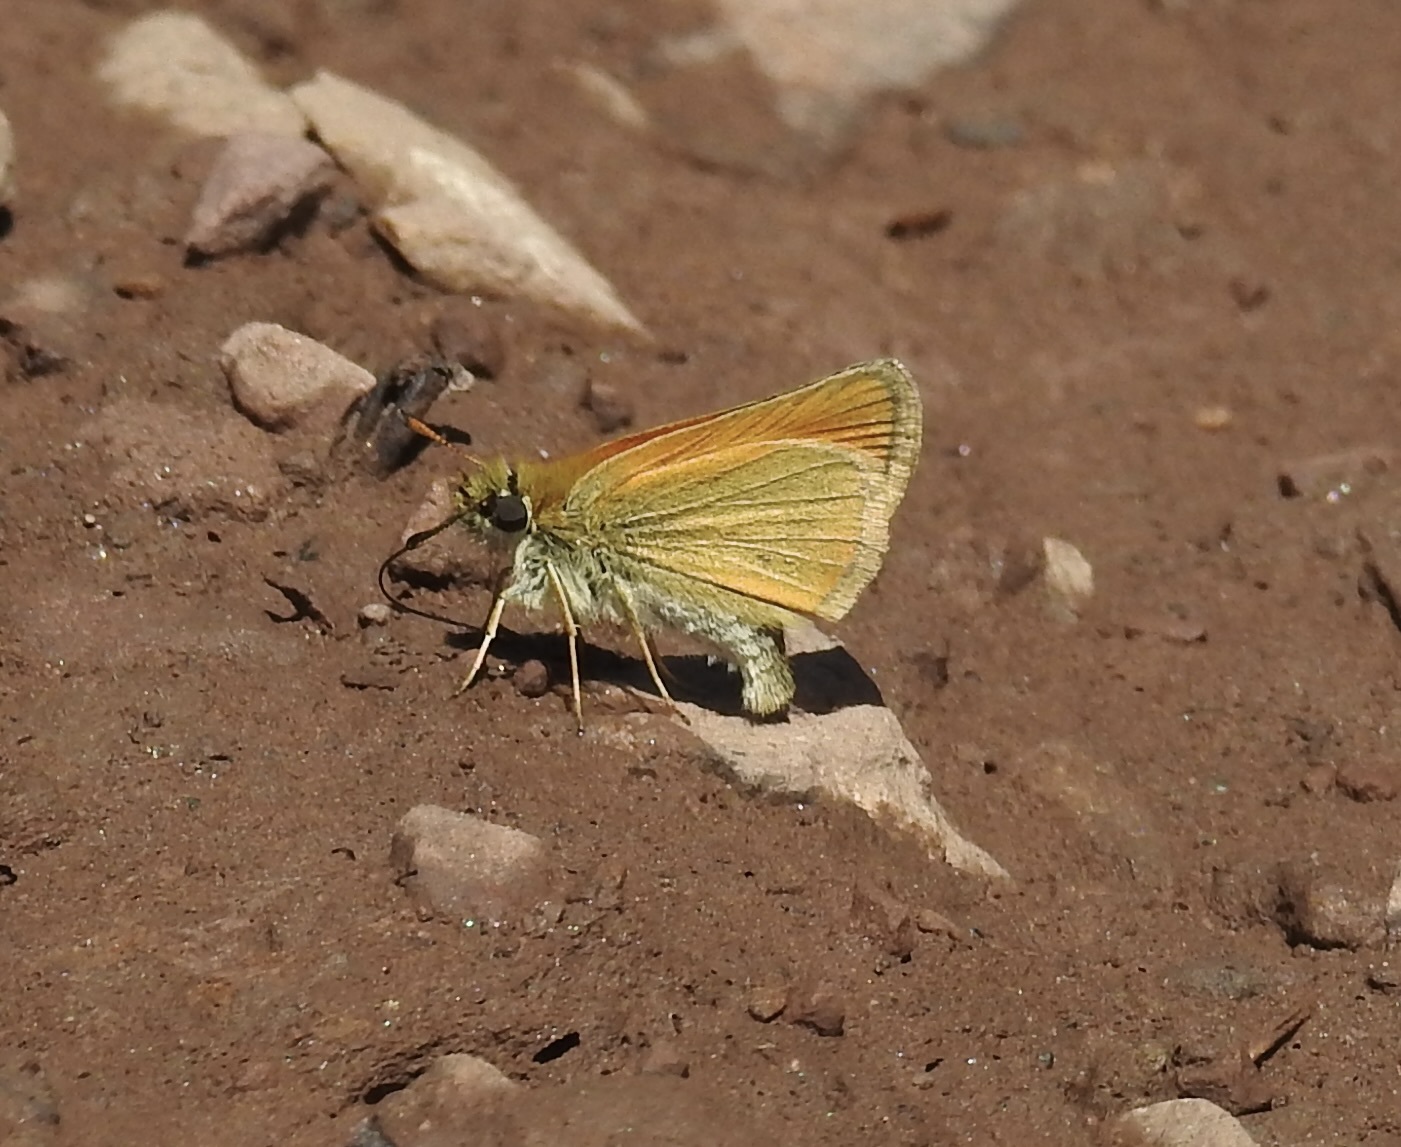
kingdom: Animalia
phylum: Arthropoda
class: Insecta
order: Lepidoptera
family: Hesperiidae
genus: Thymelicus
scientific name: Thymelicus lineola
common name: Essex skipper
